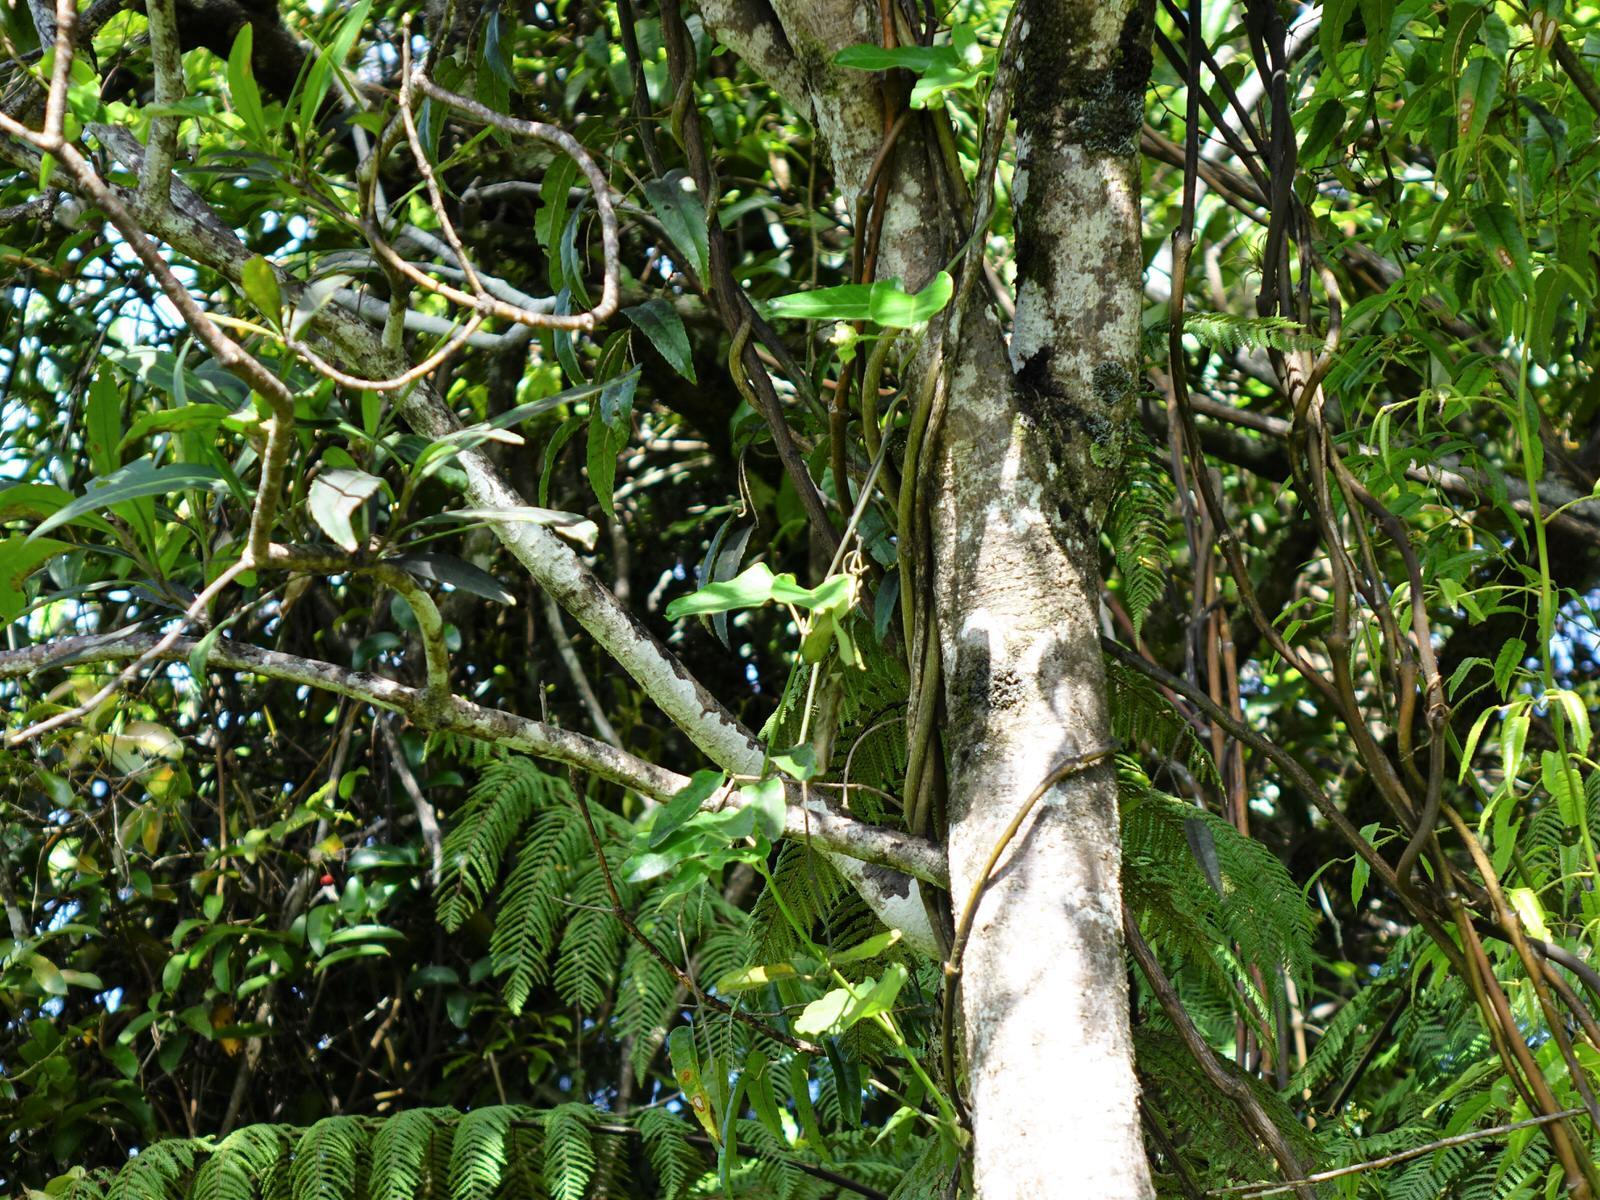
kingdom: Plantae
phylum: Tracheophyta
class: Magnoliopsida
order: Gentianales
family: Apocynaceae
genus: Araujia
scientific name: Araujia sericifera
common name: White bladderflower
